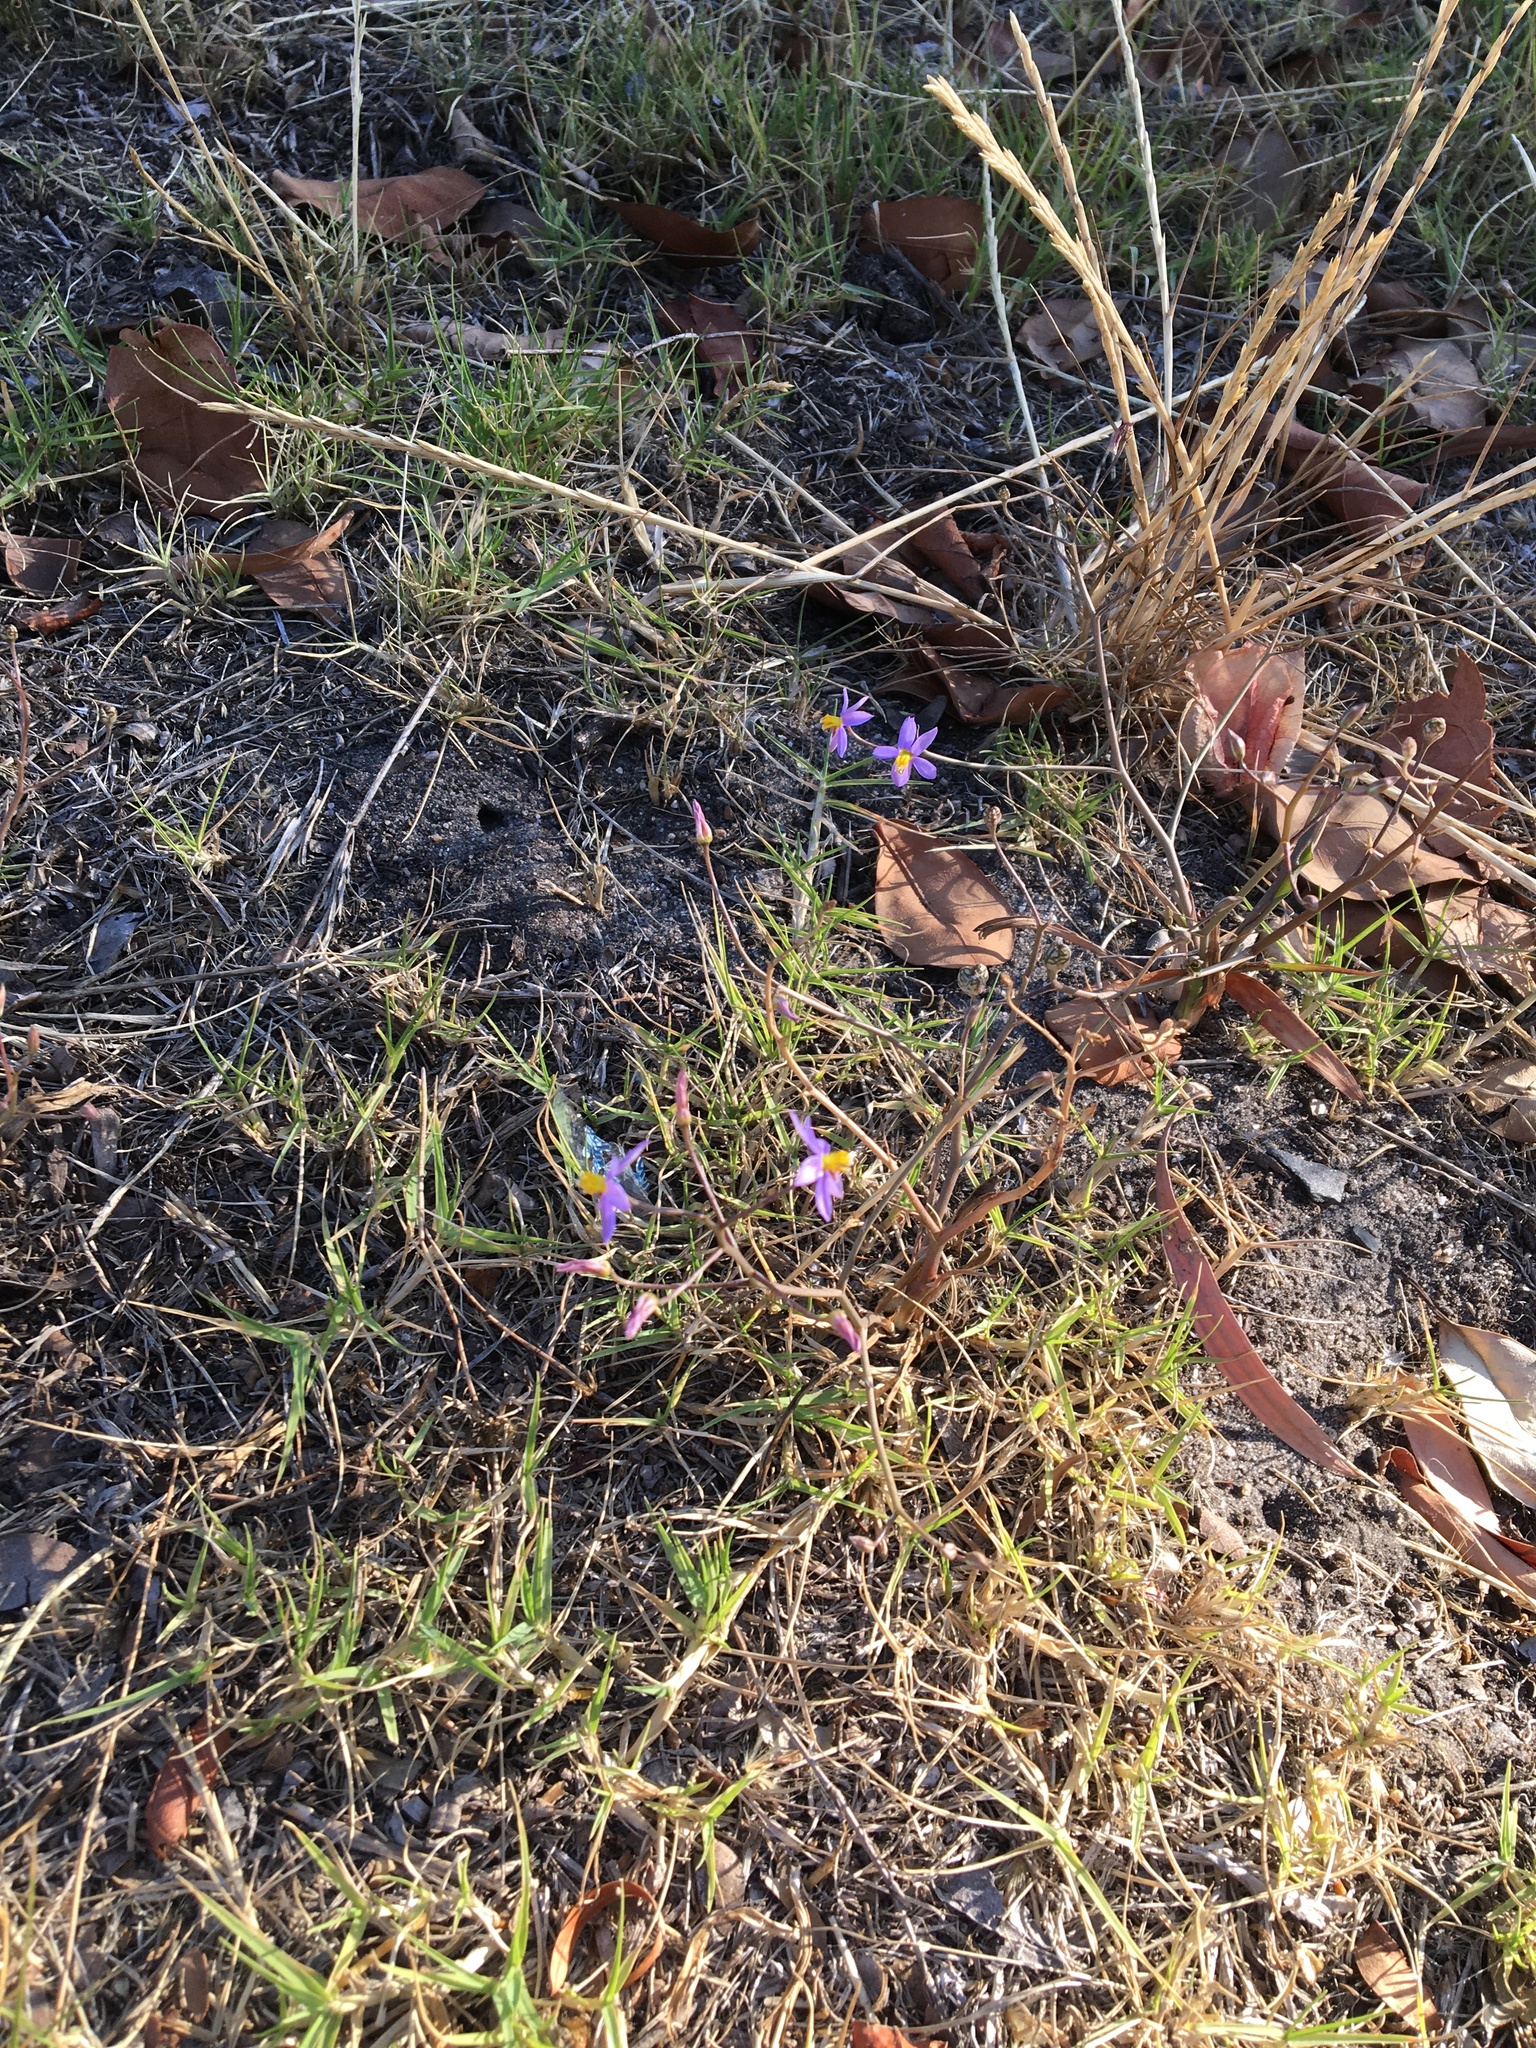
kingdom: Plantae
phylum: Tracheophyta
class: Liliopsida
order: Asparagales
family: Tecophilaeaceae
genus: Cyanella
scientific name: Cyanella hyacinthoides
